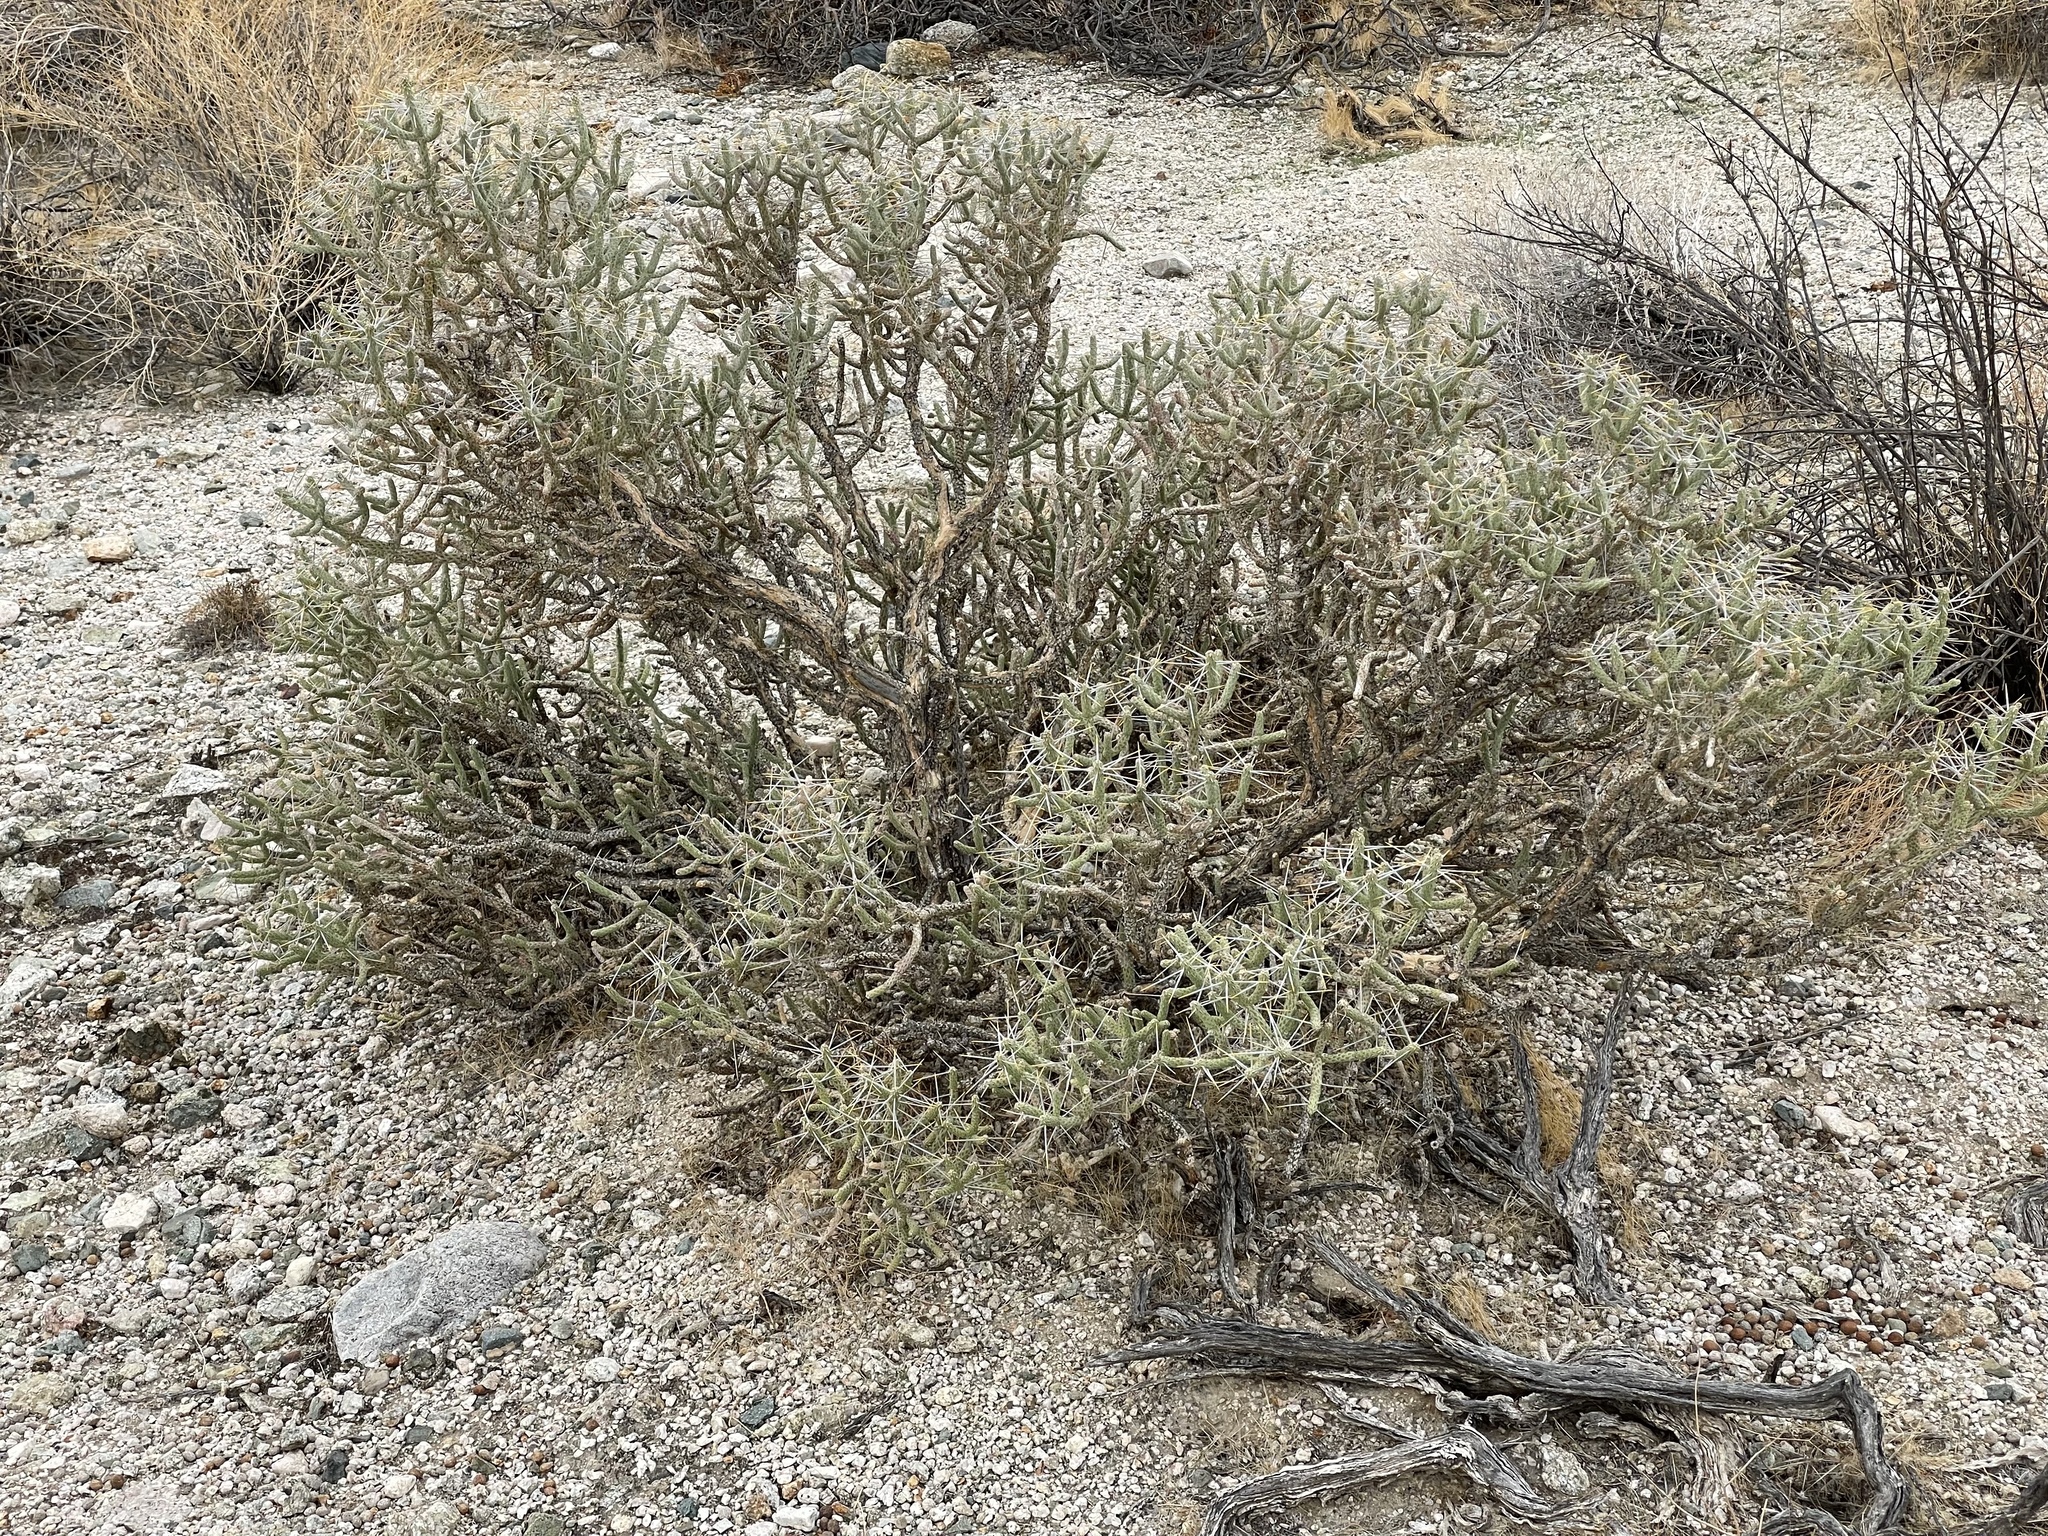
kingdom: Plantae
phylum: Tracheophyta
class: Magnoliopsida
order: Caryophyllales
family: Cactaceae
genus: Cylindropuntia
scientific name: Cylindropuntia ramosissima
